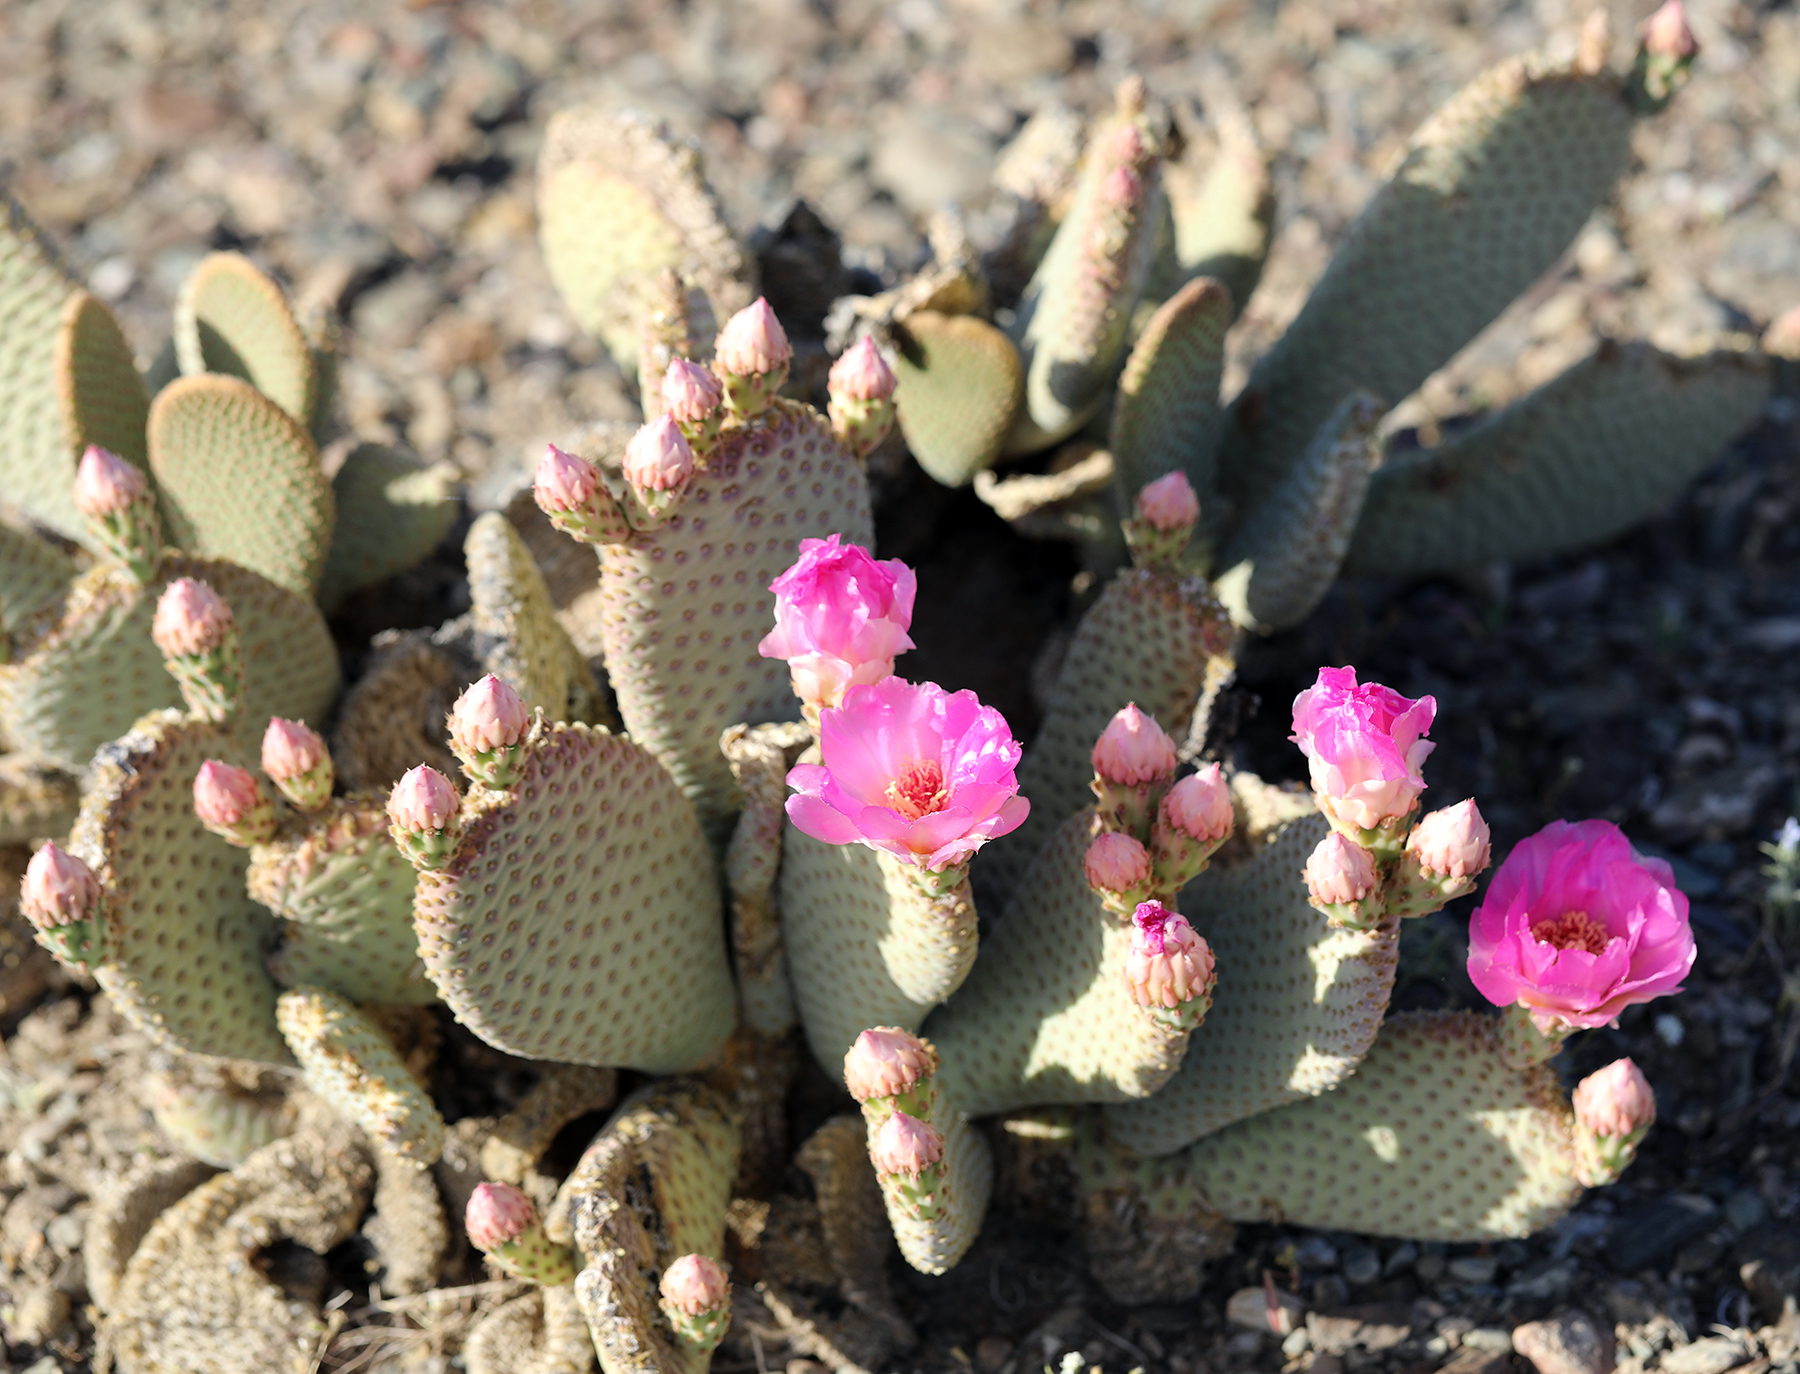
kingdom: Plantae
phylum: Tracheophyta
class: Magnoliopsida
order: Caryophyllales
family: Cactaceae
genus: Opuntia
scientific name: Opuntia basilaris
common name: Beavertail prickly-pear
